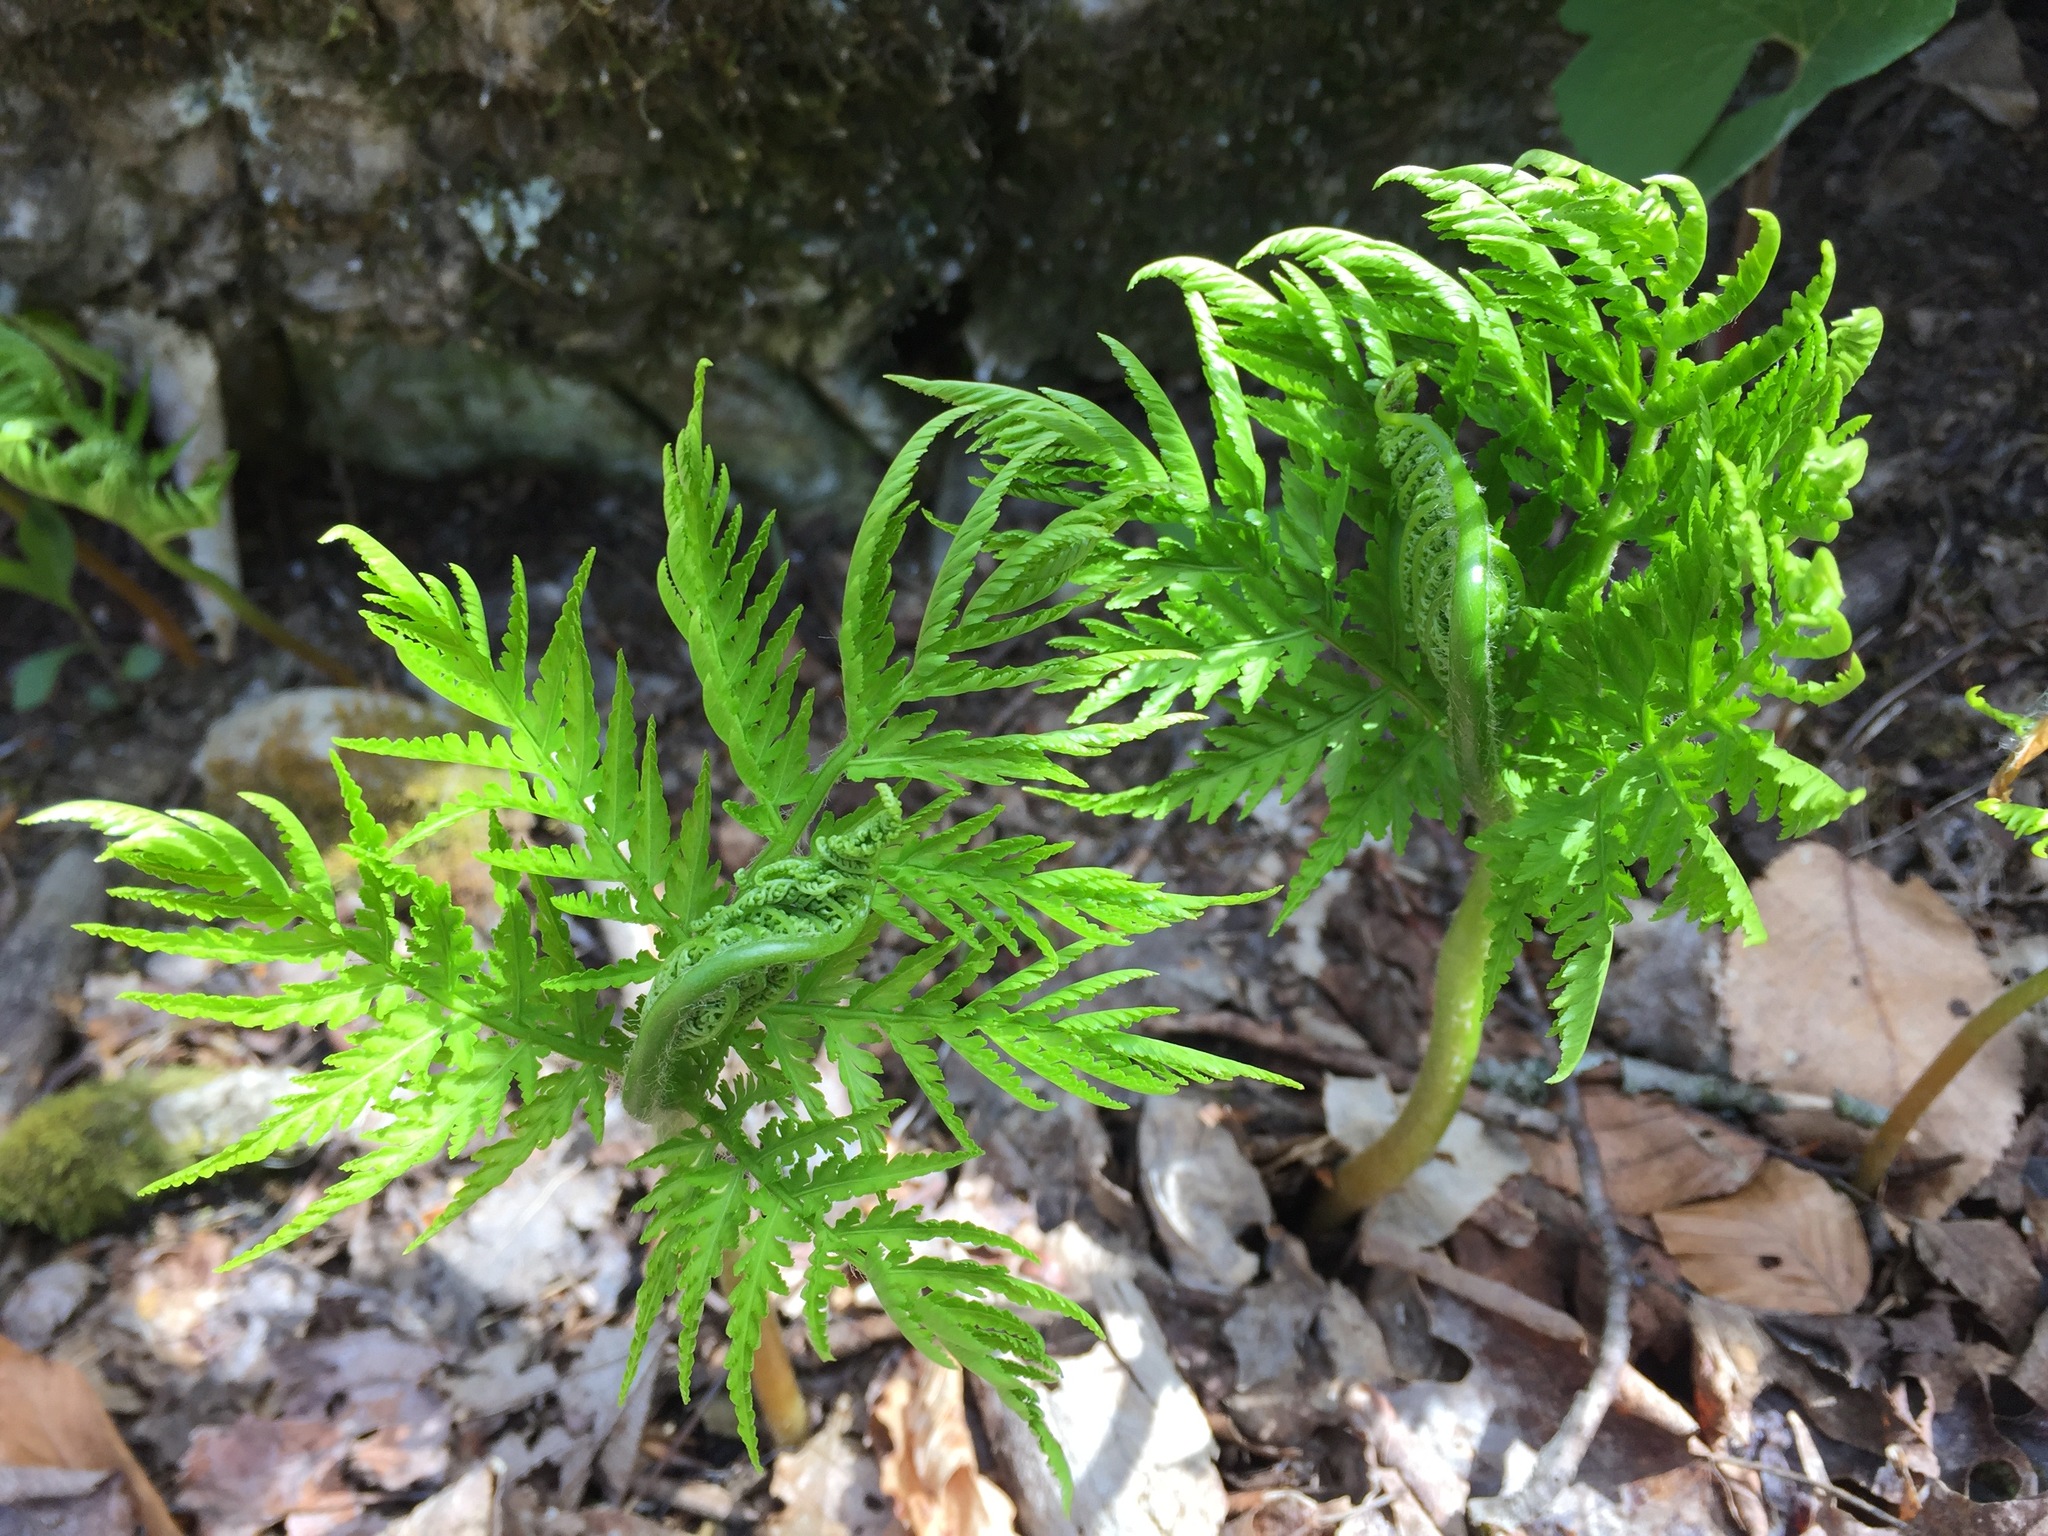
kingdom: Plantae
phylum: Tracheophyta
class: Polypodiopsida
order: Ophioglossales
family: Ophioglossaceae
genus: Botrypus
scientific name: Botrypus virginianus
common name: Common grapefern
